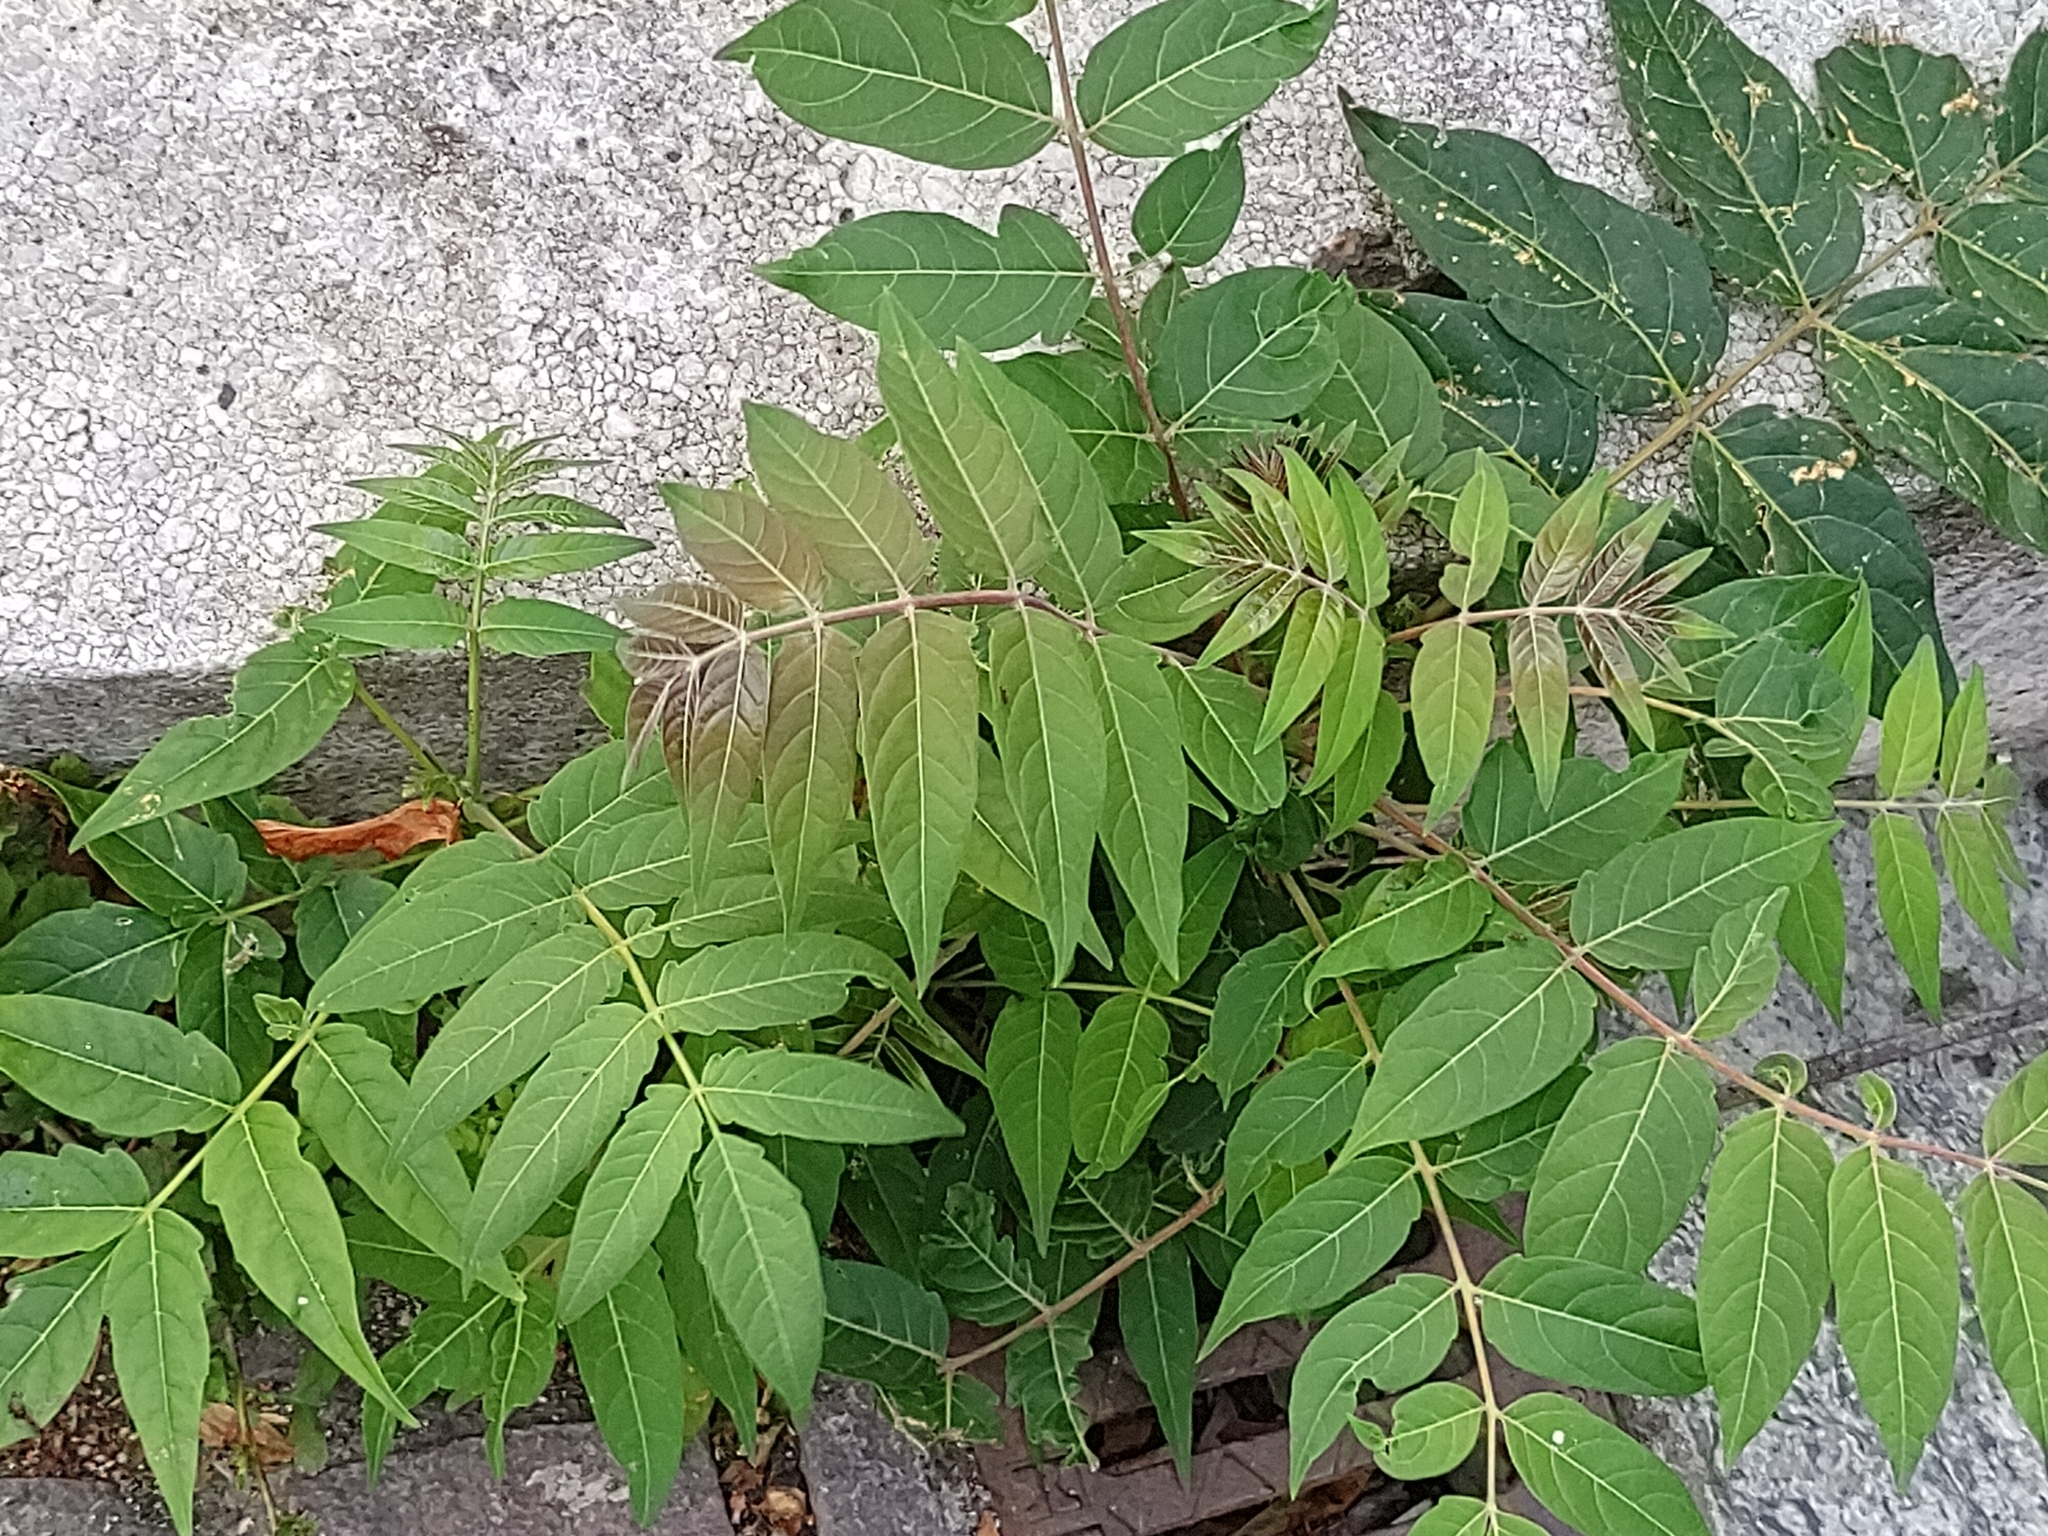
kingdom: Plantae
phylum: Tracheophyta
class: Magnoliopsida
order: Sapindales
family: Simaroubaceae
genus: Ailanthus
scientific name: Ailanthus altissima
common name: Tree-of-heaven
